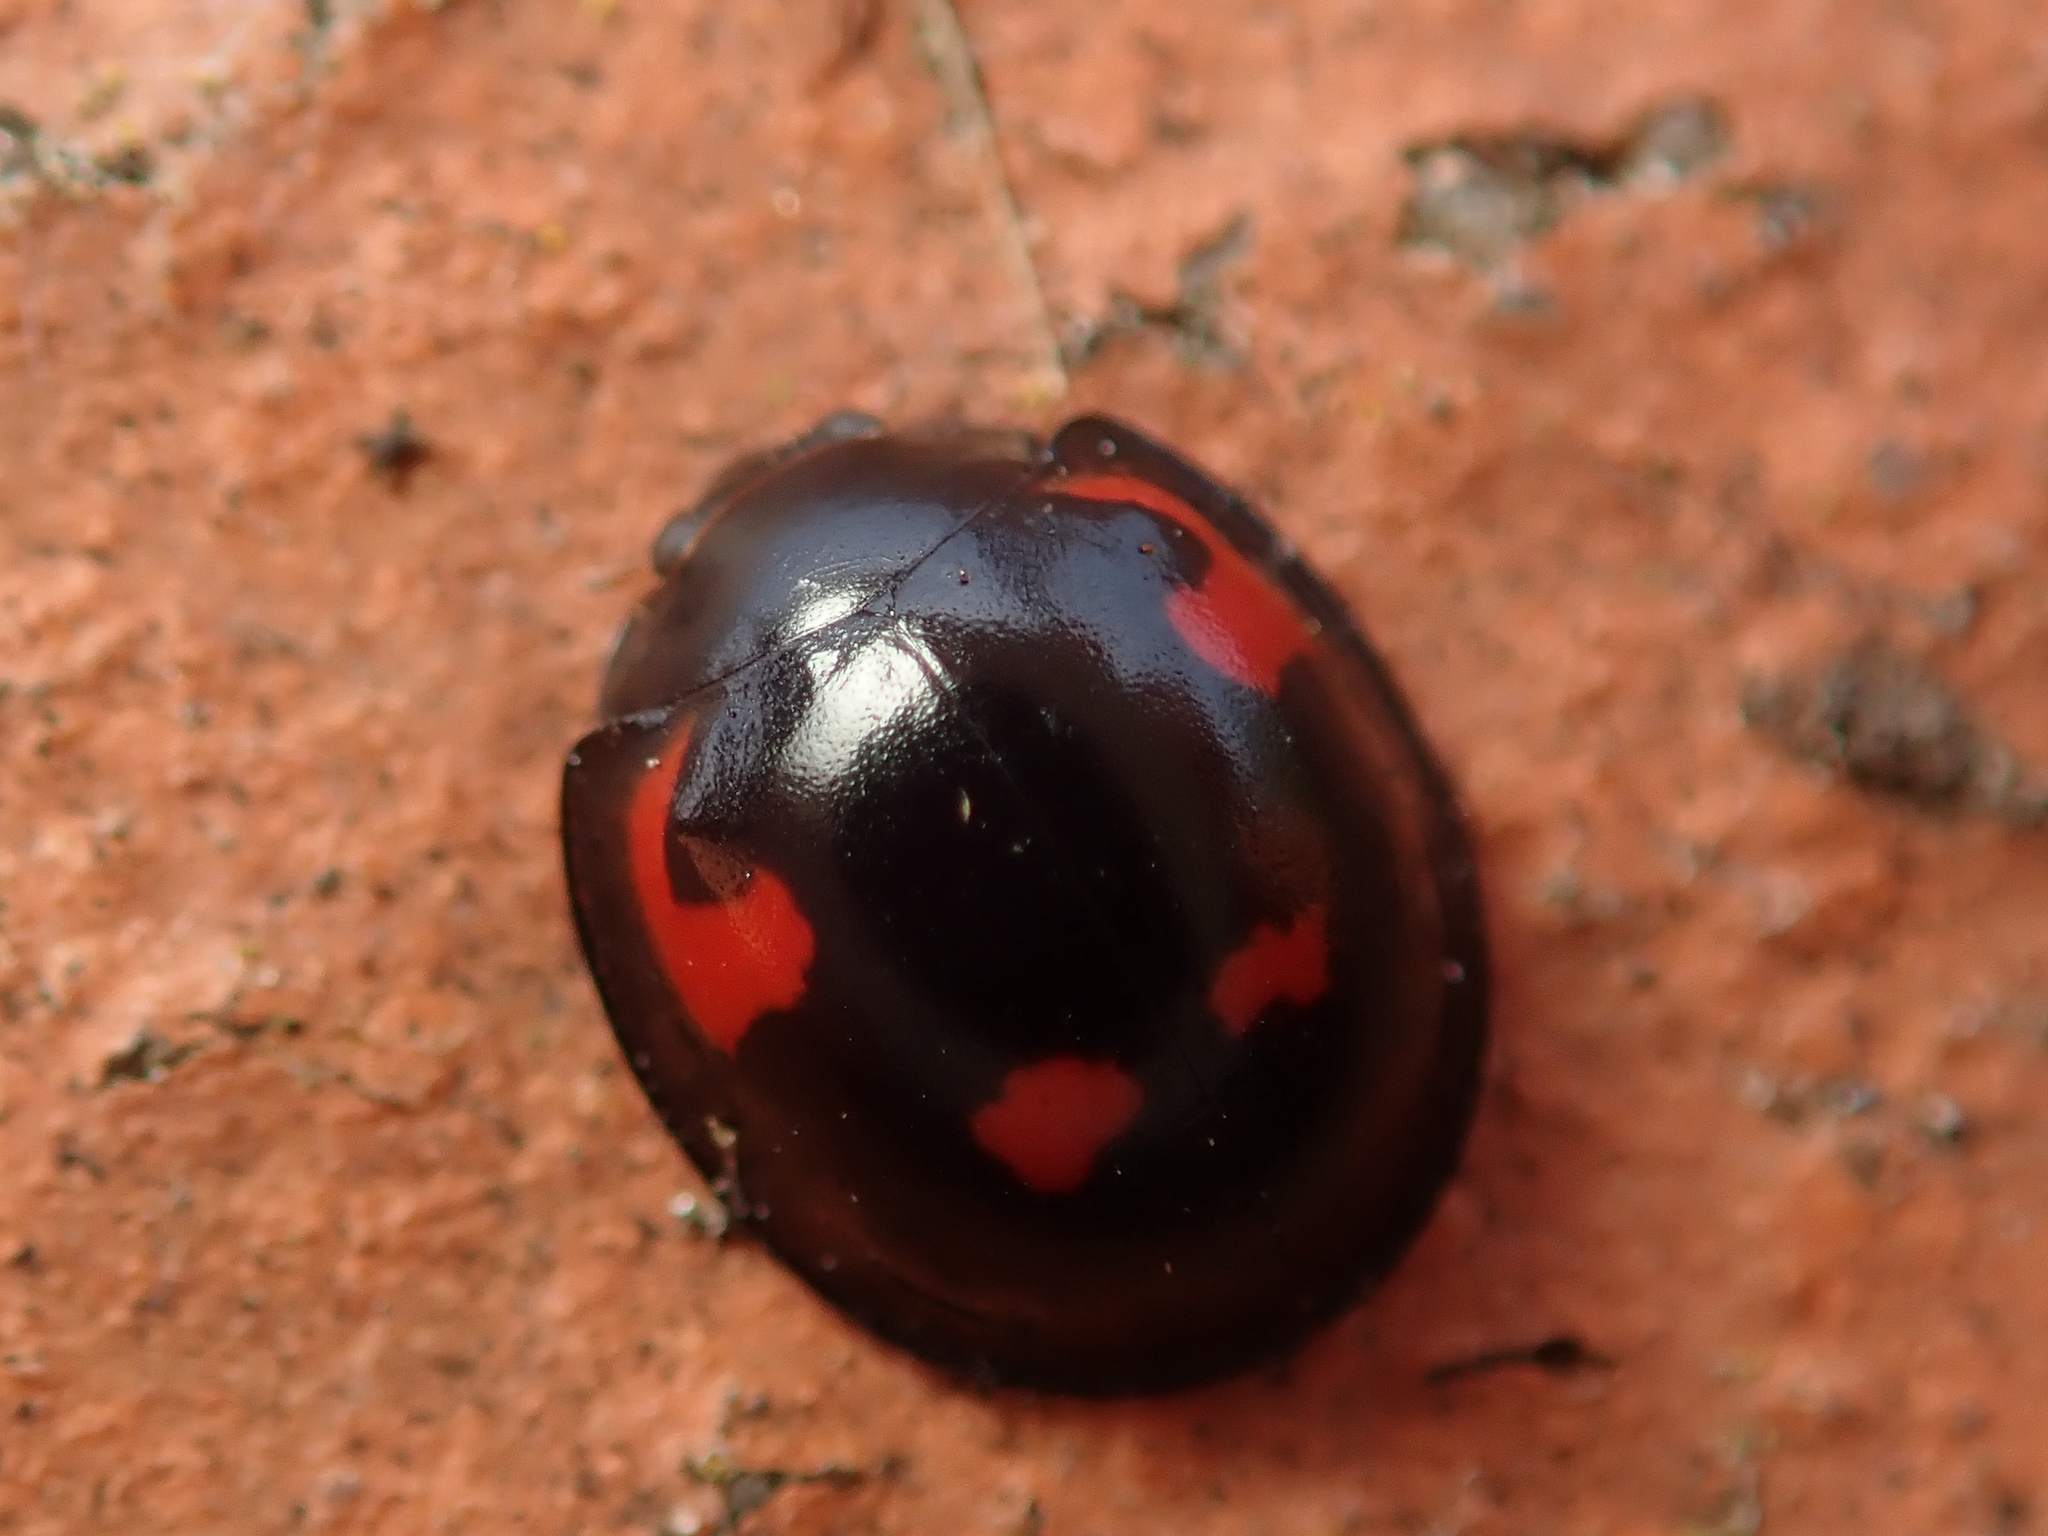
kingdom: Animalia
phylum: Arthropoda
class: Insecta
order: Coleoptera
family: Coccinellidae
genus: Brumus
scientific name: Brumus quadripustulatus
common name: Ladybird beetle
